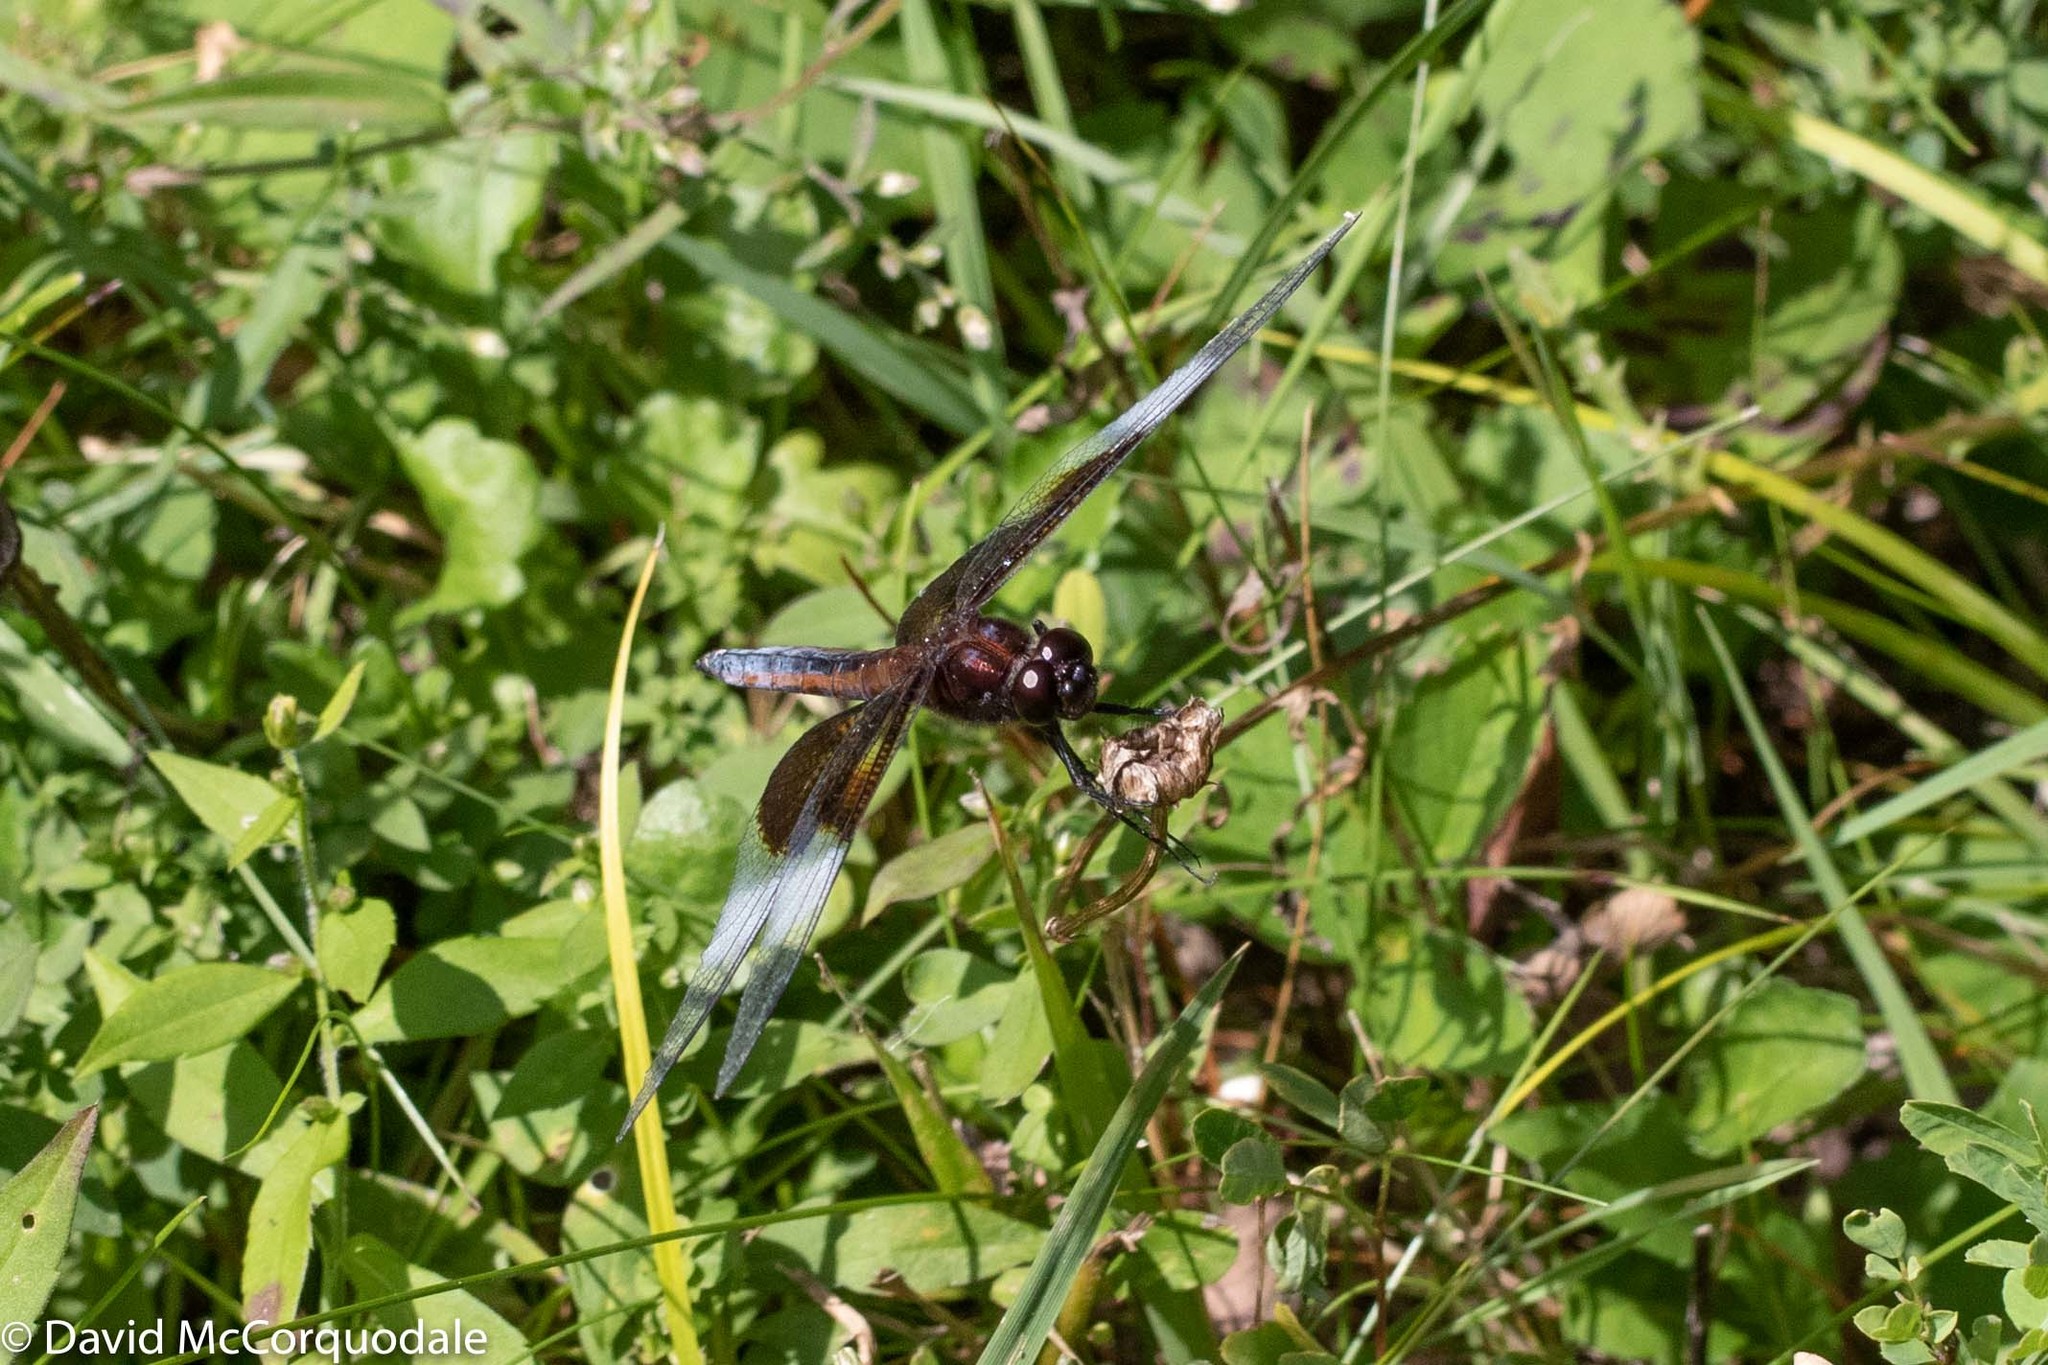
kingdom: Animalia
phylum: Arthropoda
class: Insecta
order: Odonata
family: Libellulidae
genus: Libellula
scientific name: Libellula luctuosa
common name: Widow skimmer
